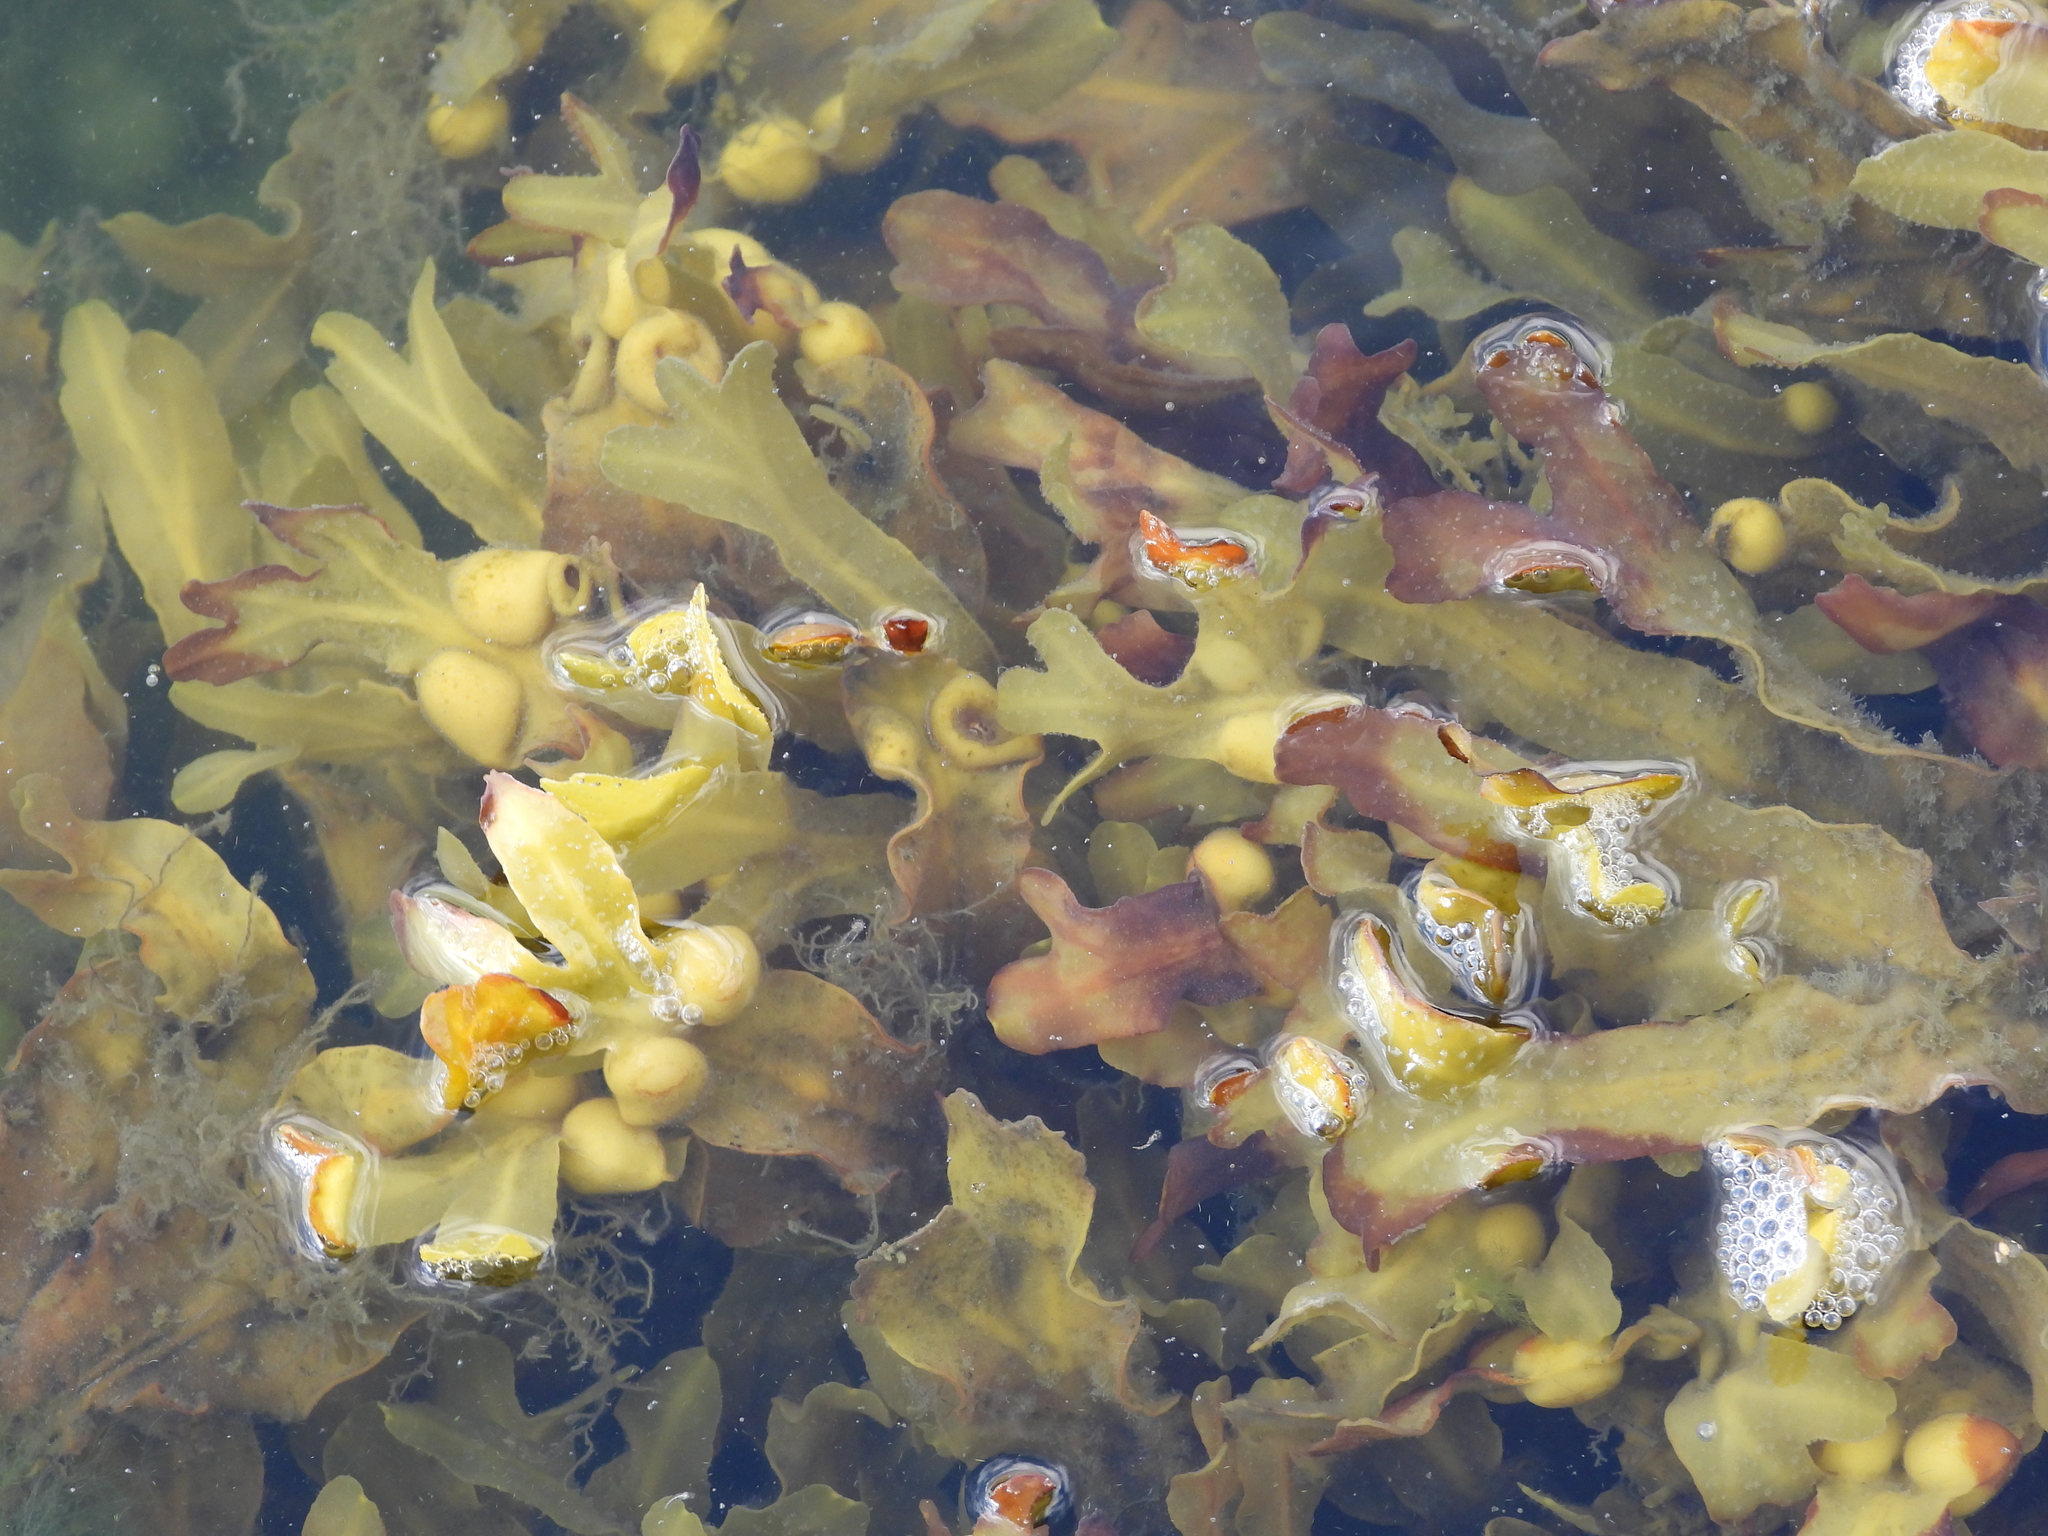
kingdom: Chromista
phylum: Ochrophyta
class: Phaeophyceae
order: Fucales
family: Fucaceae
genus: Fucus
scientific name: Fucus vesiculosus
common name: Bladder wrack
